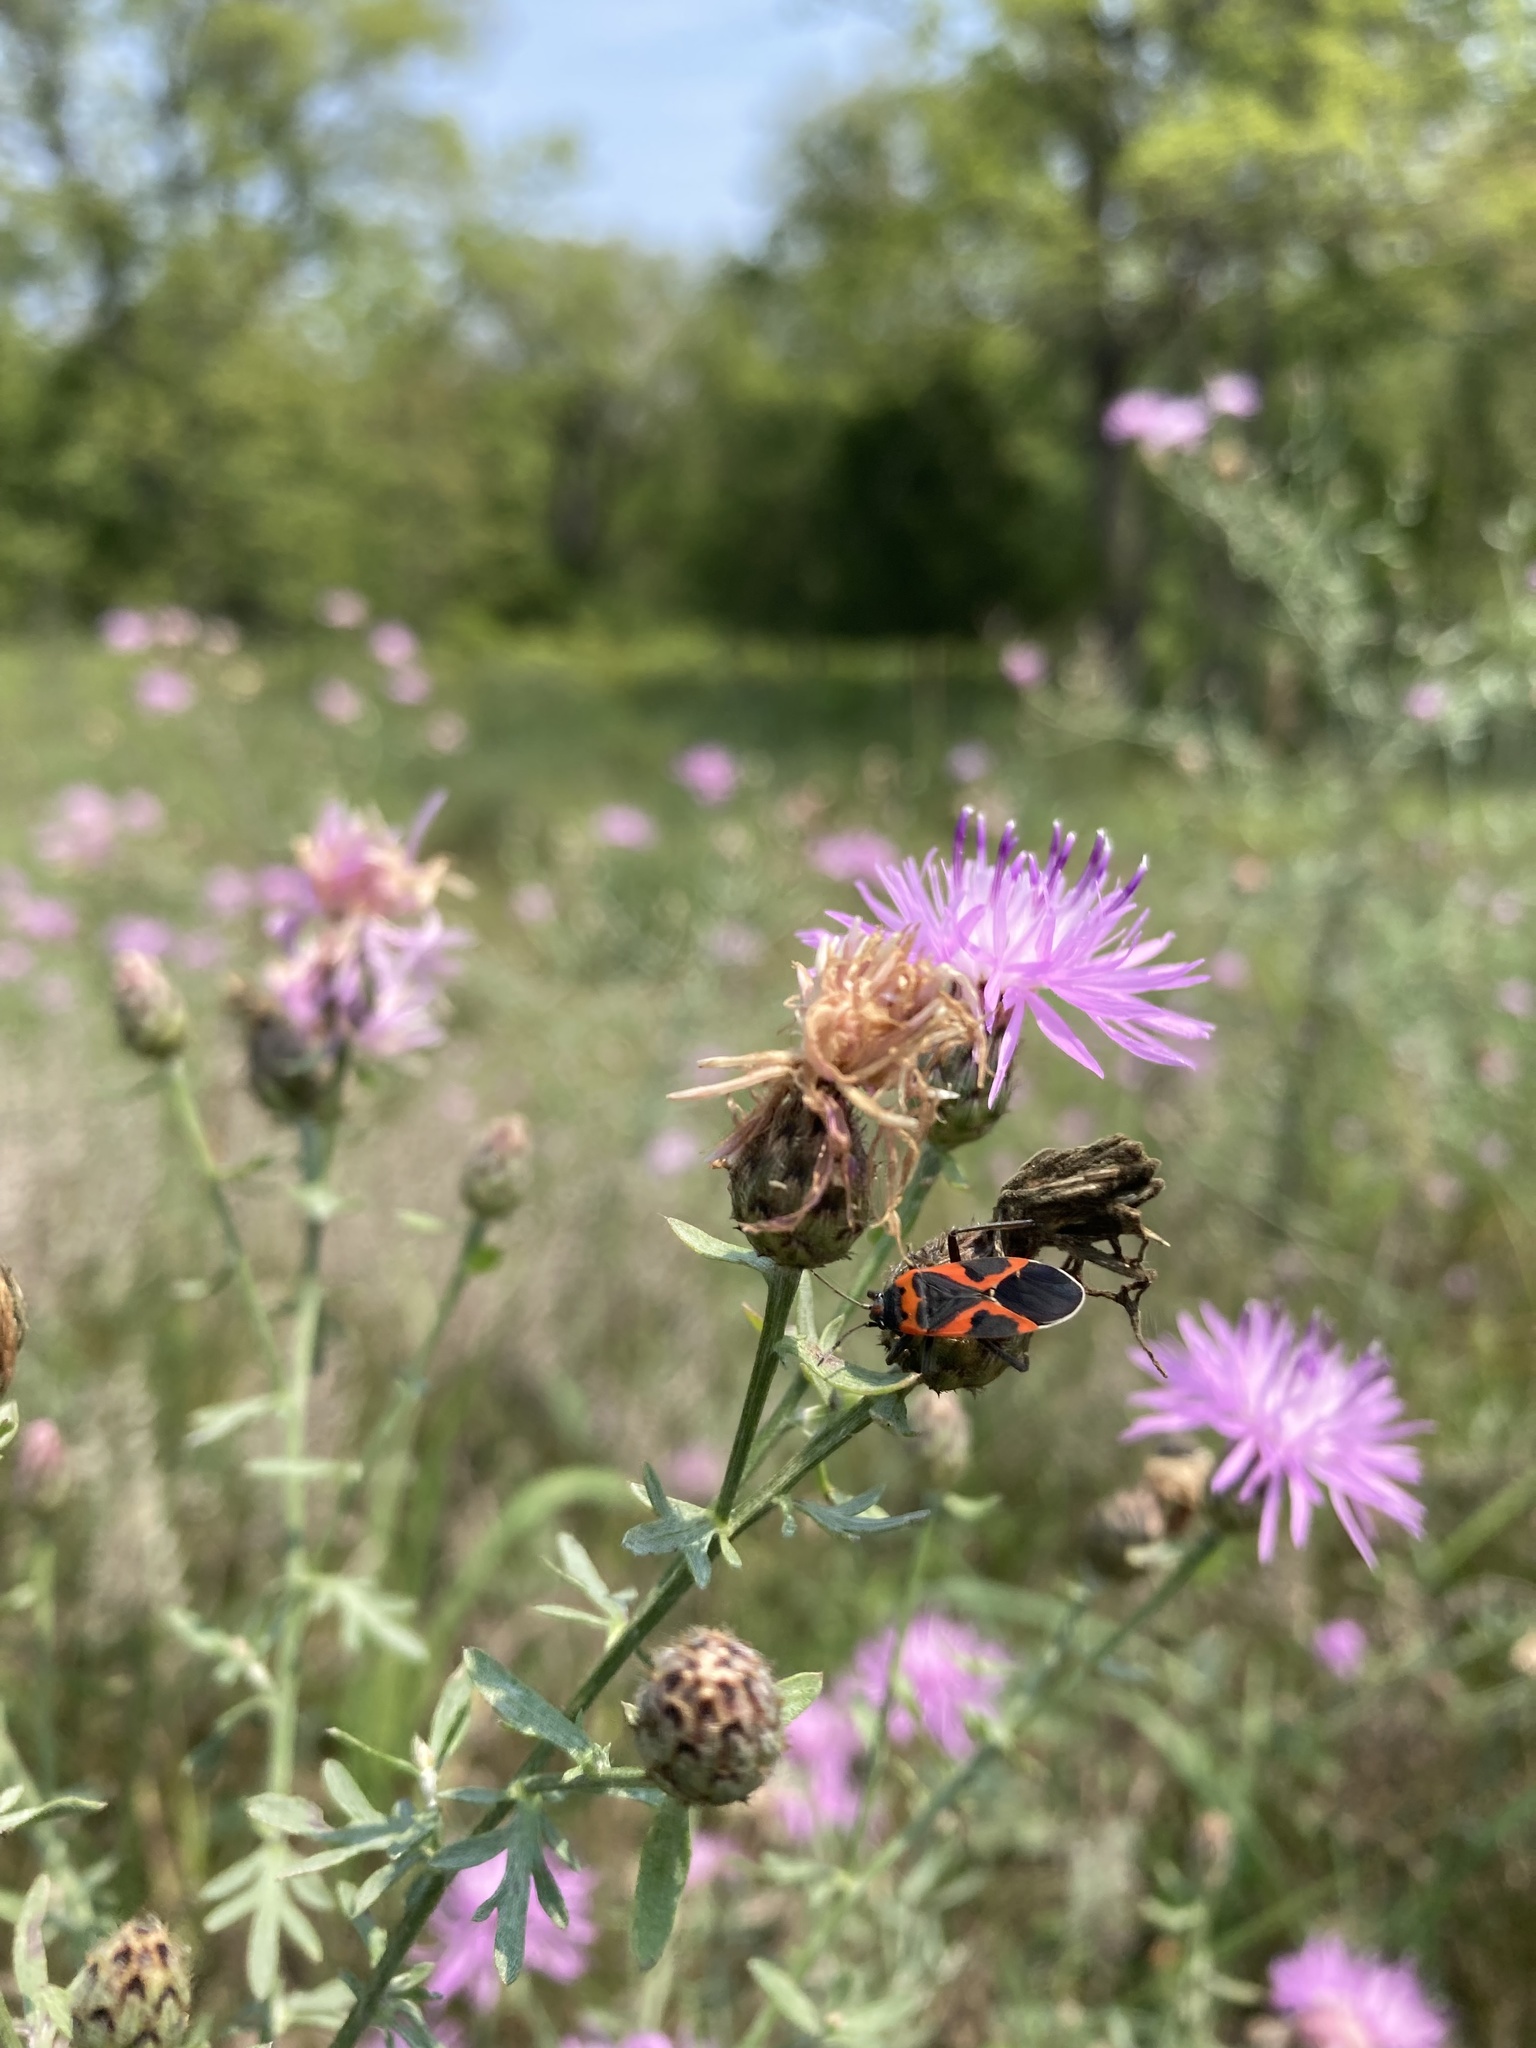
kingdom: Animalia
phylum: Arthropoda
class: Insecta
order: Hemiptera
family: Lygaeidae
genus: Lygaeus
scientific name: Lygaeus kalmii
